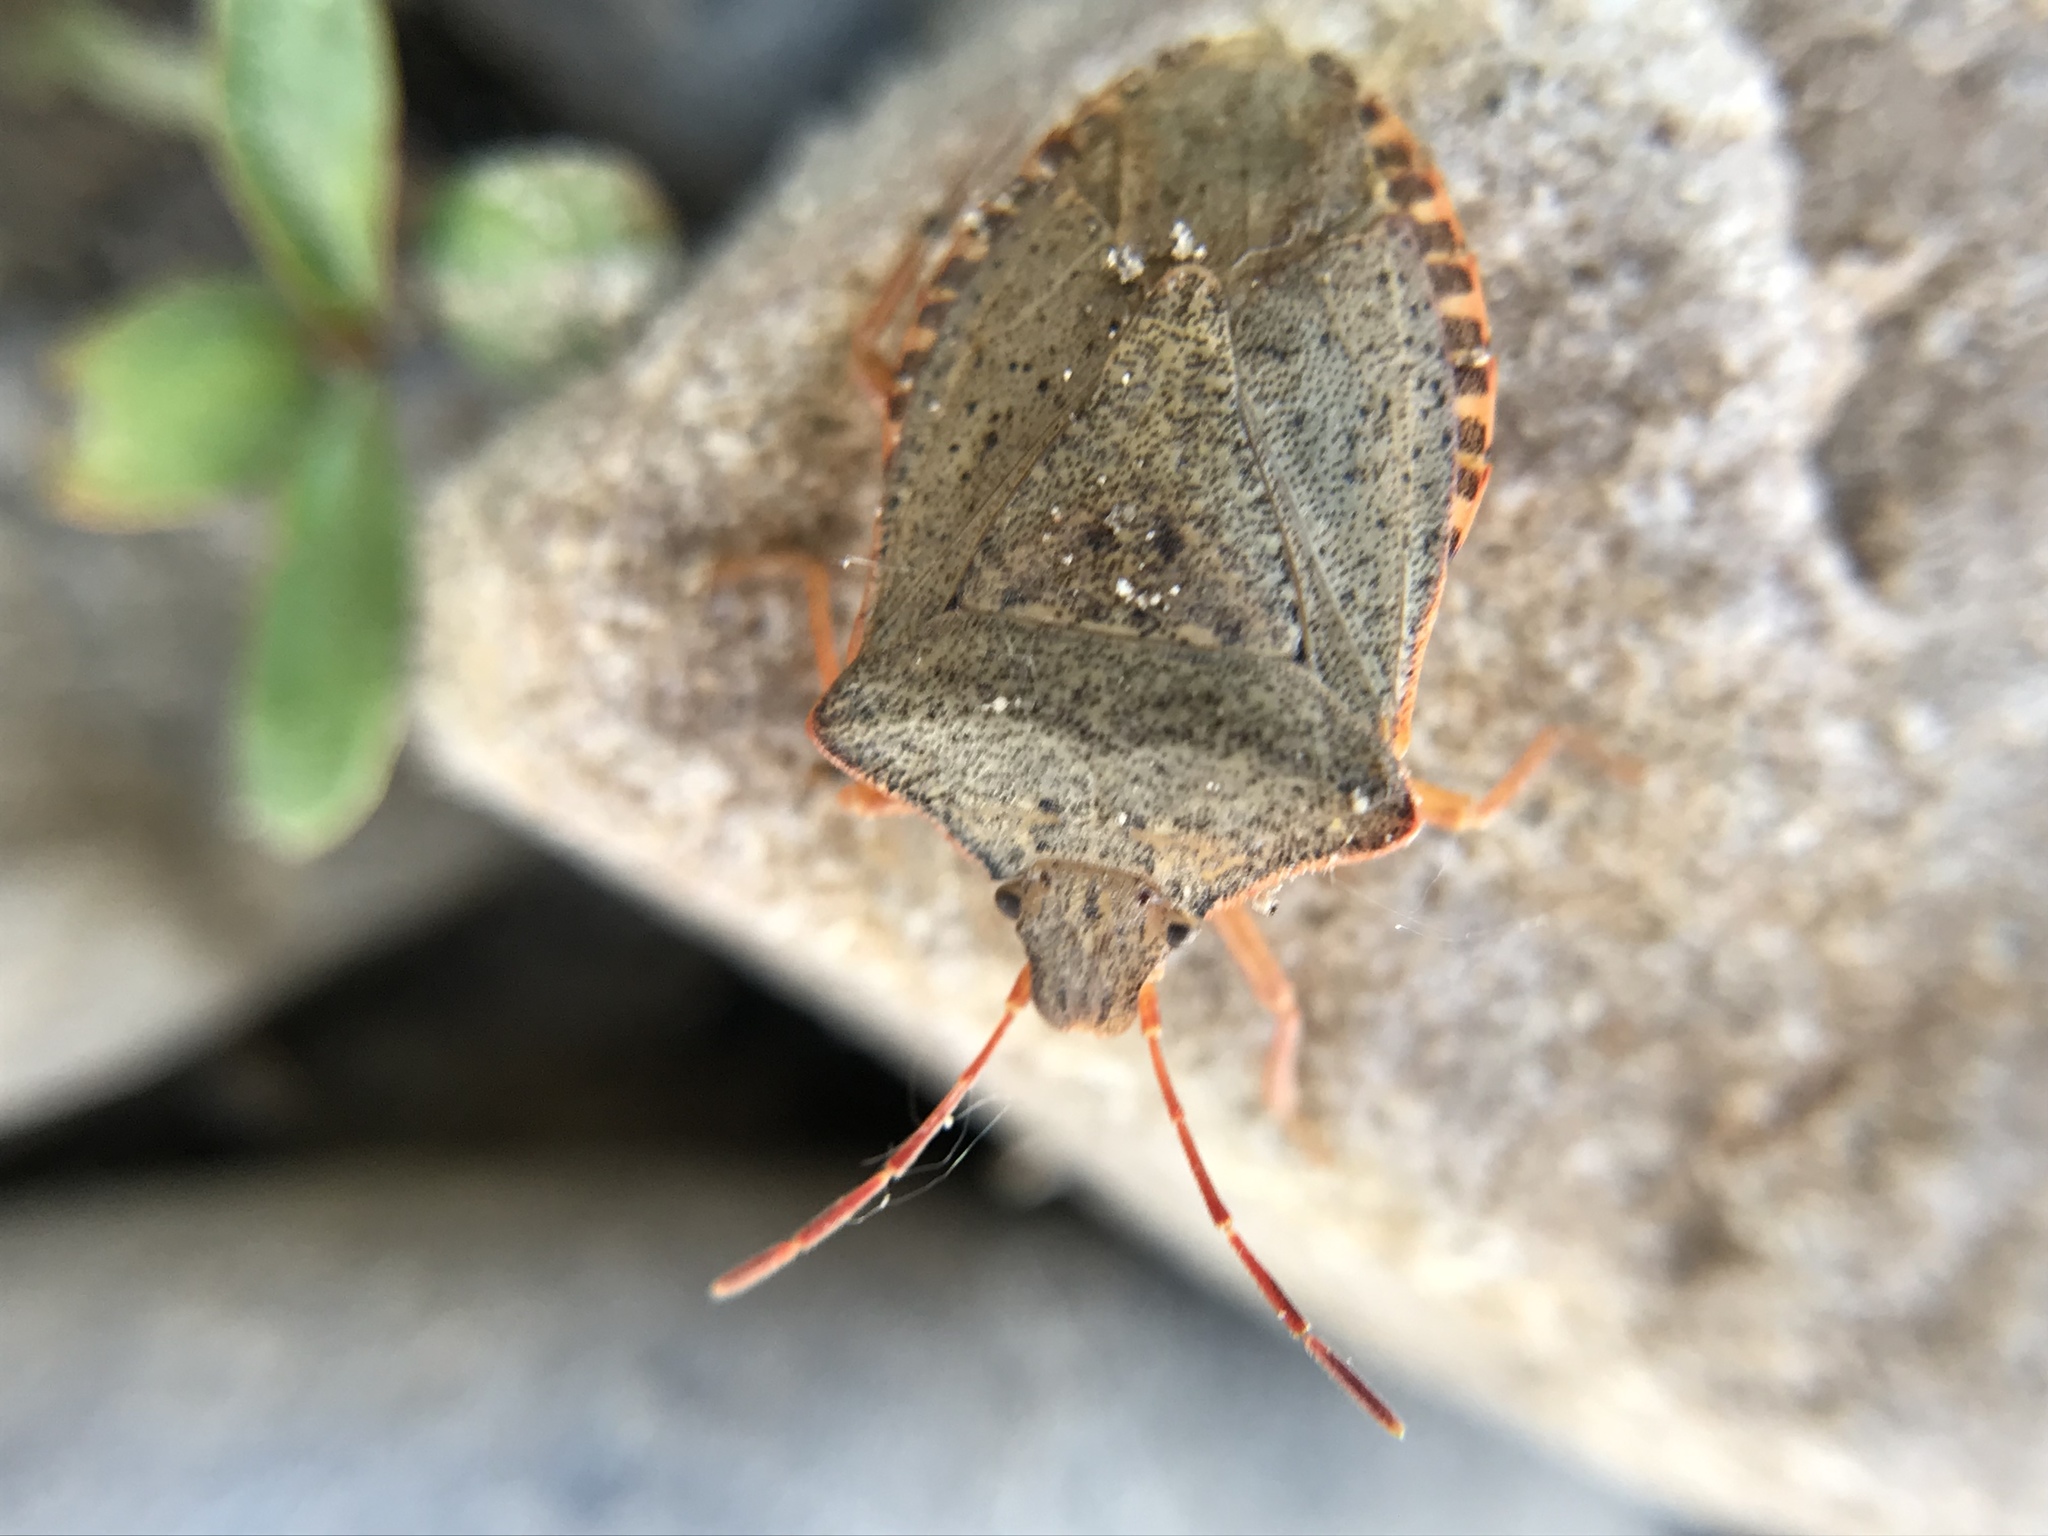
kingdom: Animalia
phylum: Arthropoda
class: Insecta
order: Hemiptera
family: Pentatomidae
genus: Euschistus
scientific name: Euschistus inflatus
